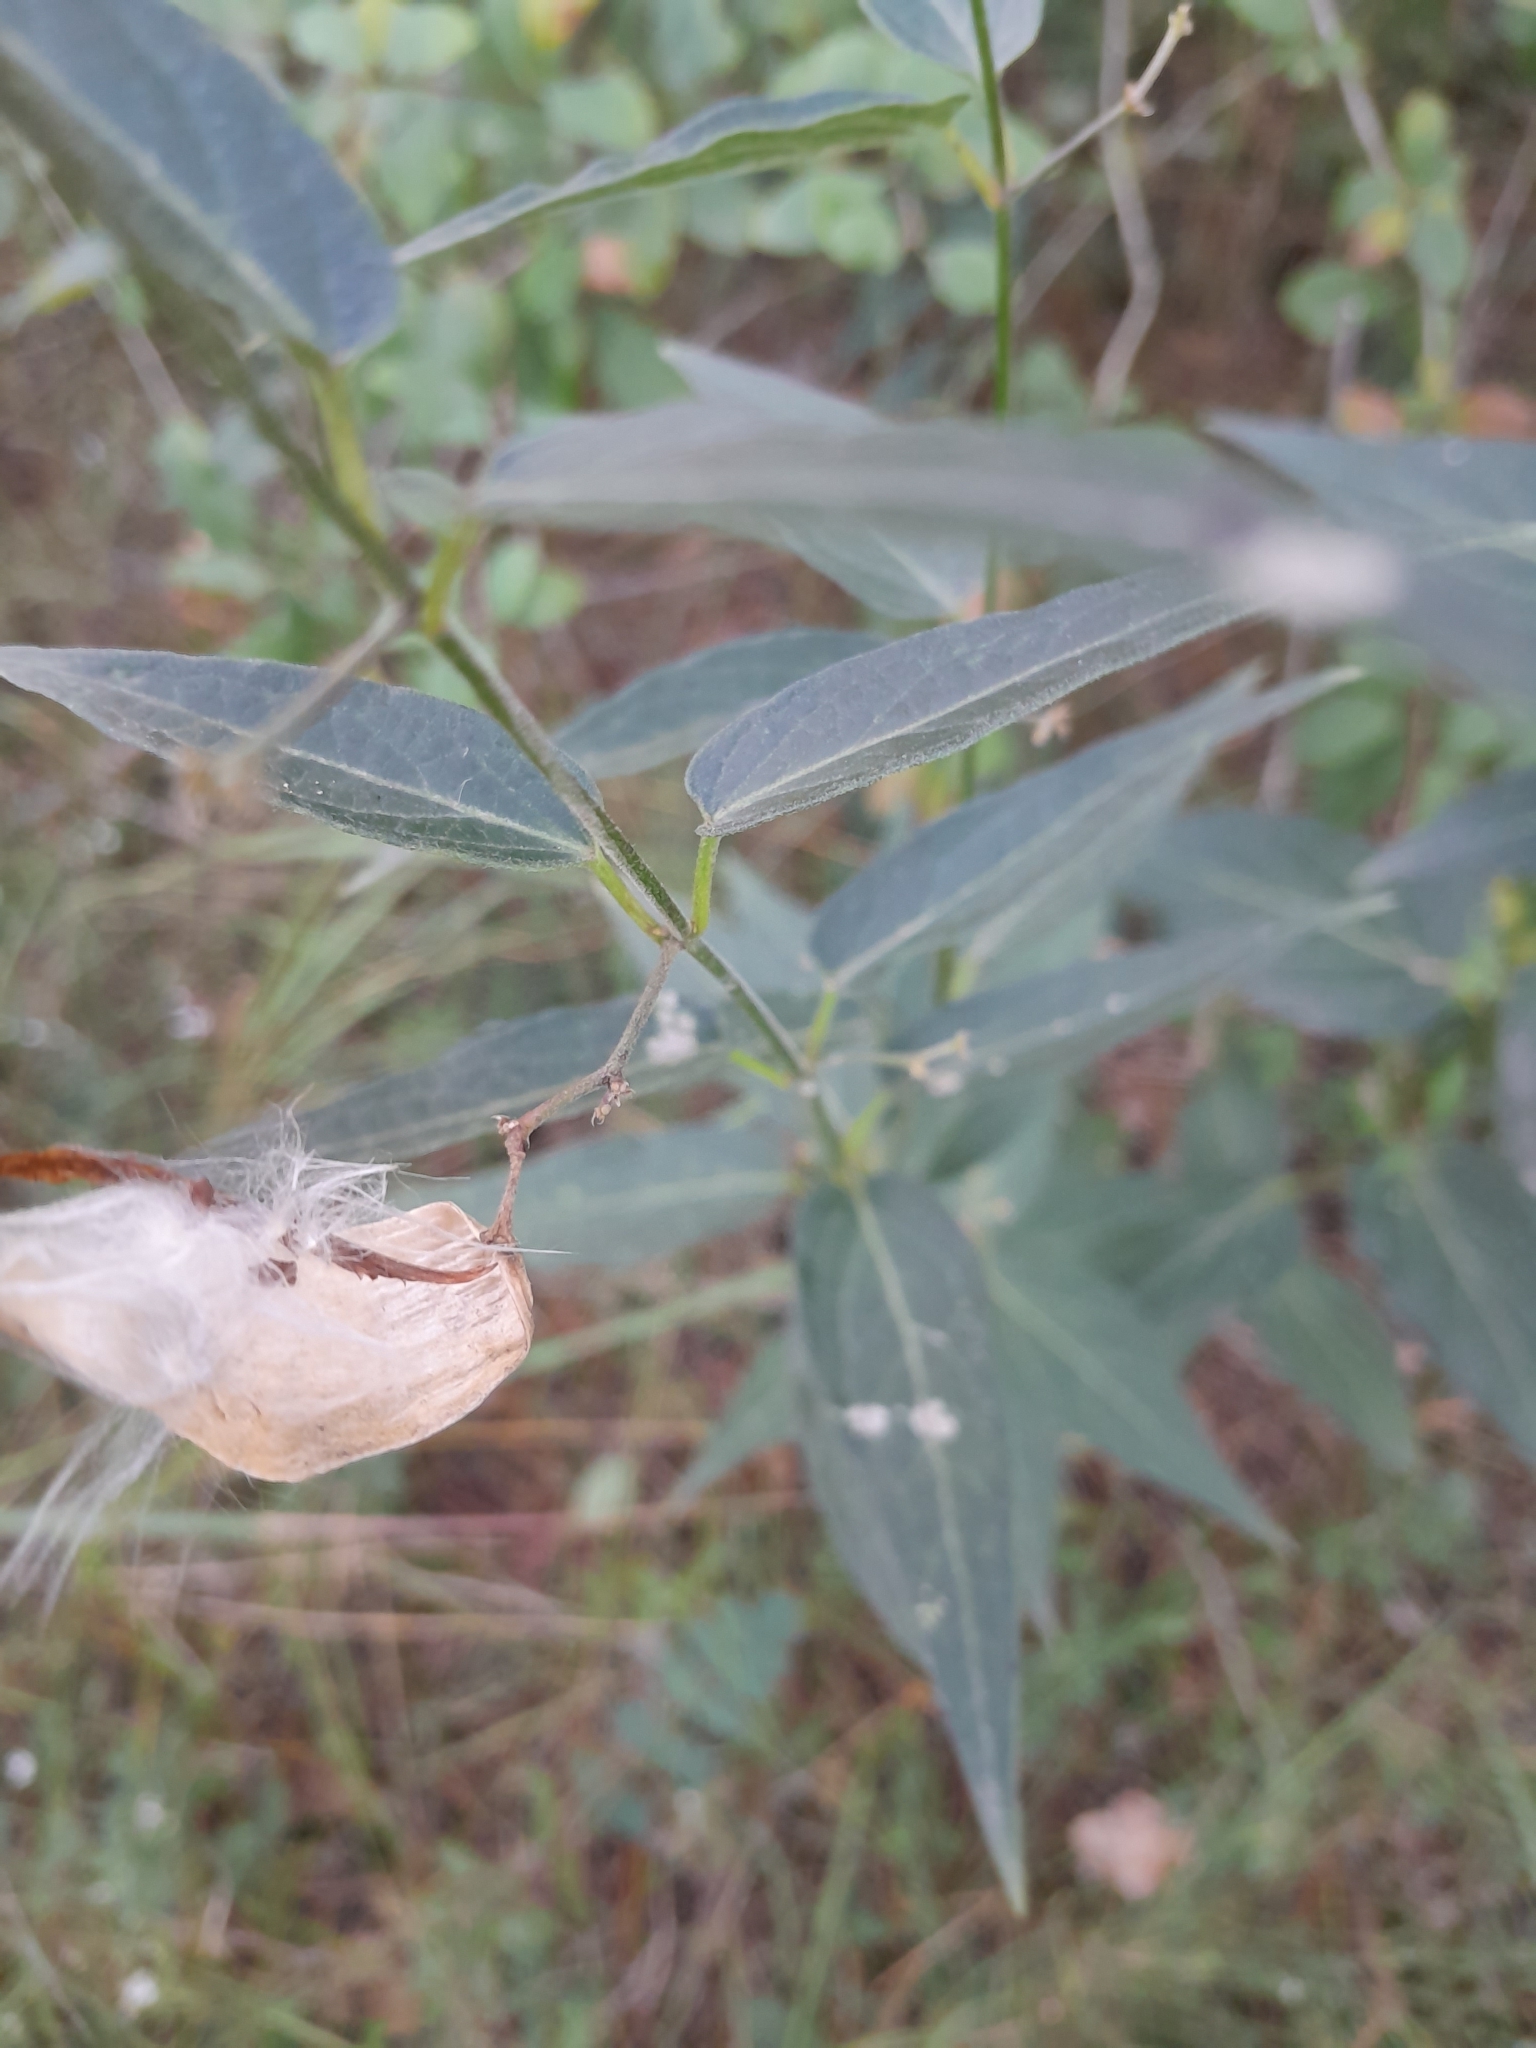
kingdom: Plantae
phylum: Tracheophyta
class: Magnoliopsida
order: Gentianales
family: Apocynaceae
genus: Vincetoxicum
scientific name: Vincetoxicum hirundinaria
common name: White swallowwort
